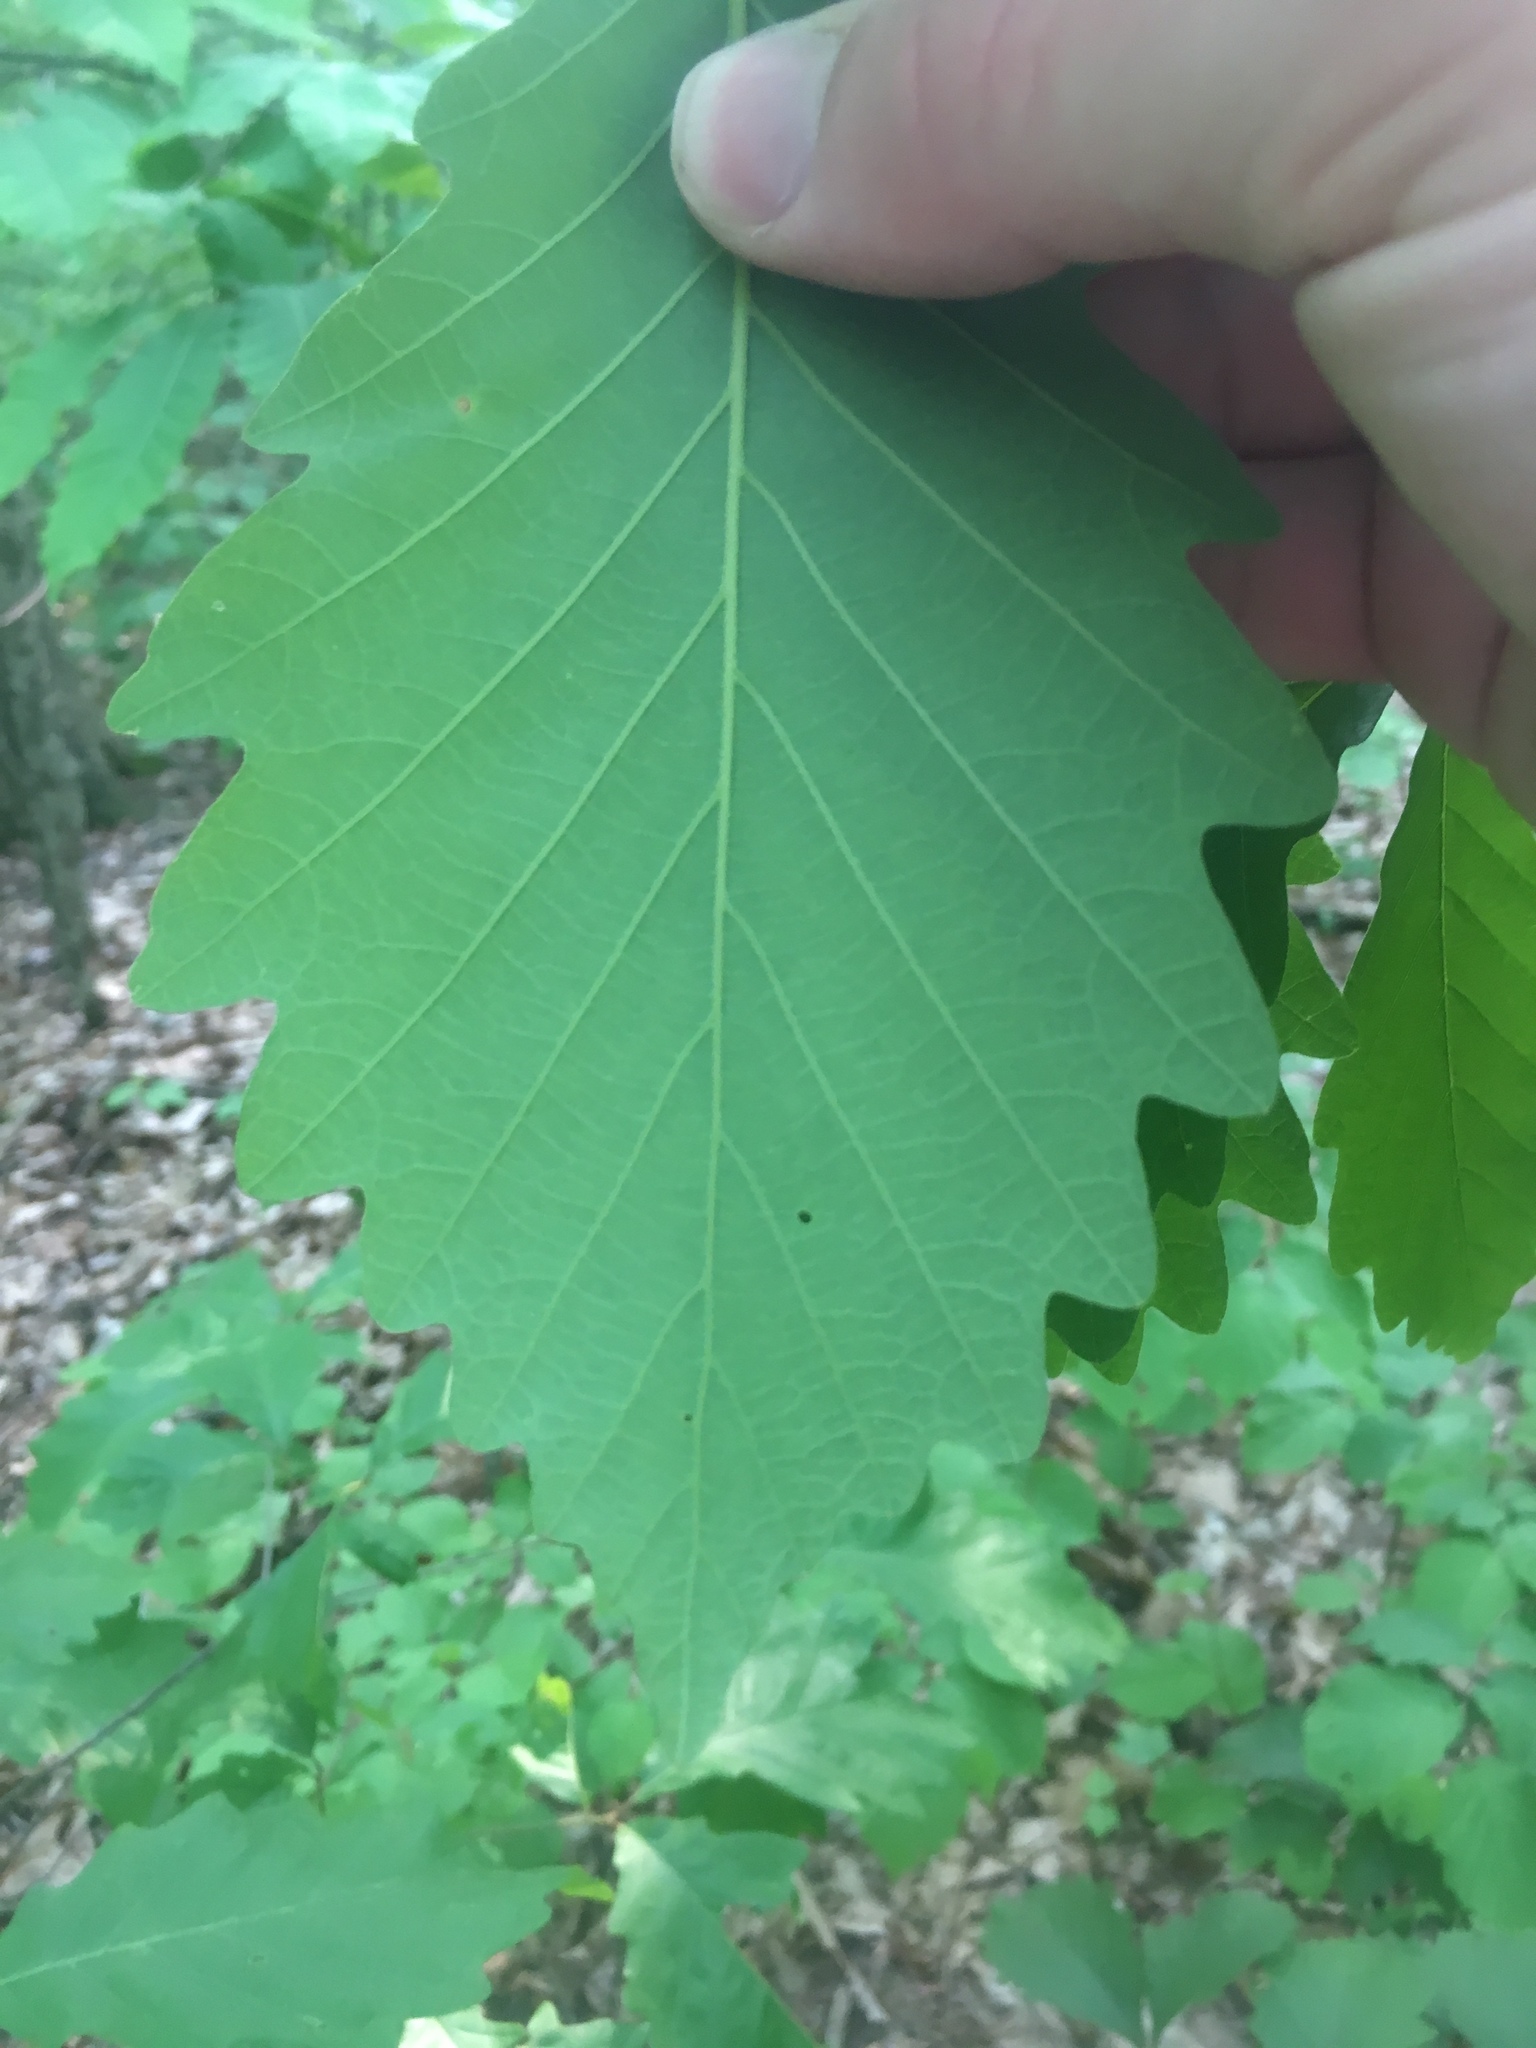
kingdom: Plantae
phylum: Tracheophyta
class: Magnoliopsida
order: Fagales
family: Fagaceae
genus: Quercus
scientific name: Quercus montana
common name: Chestnut oak
